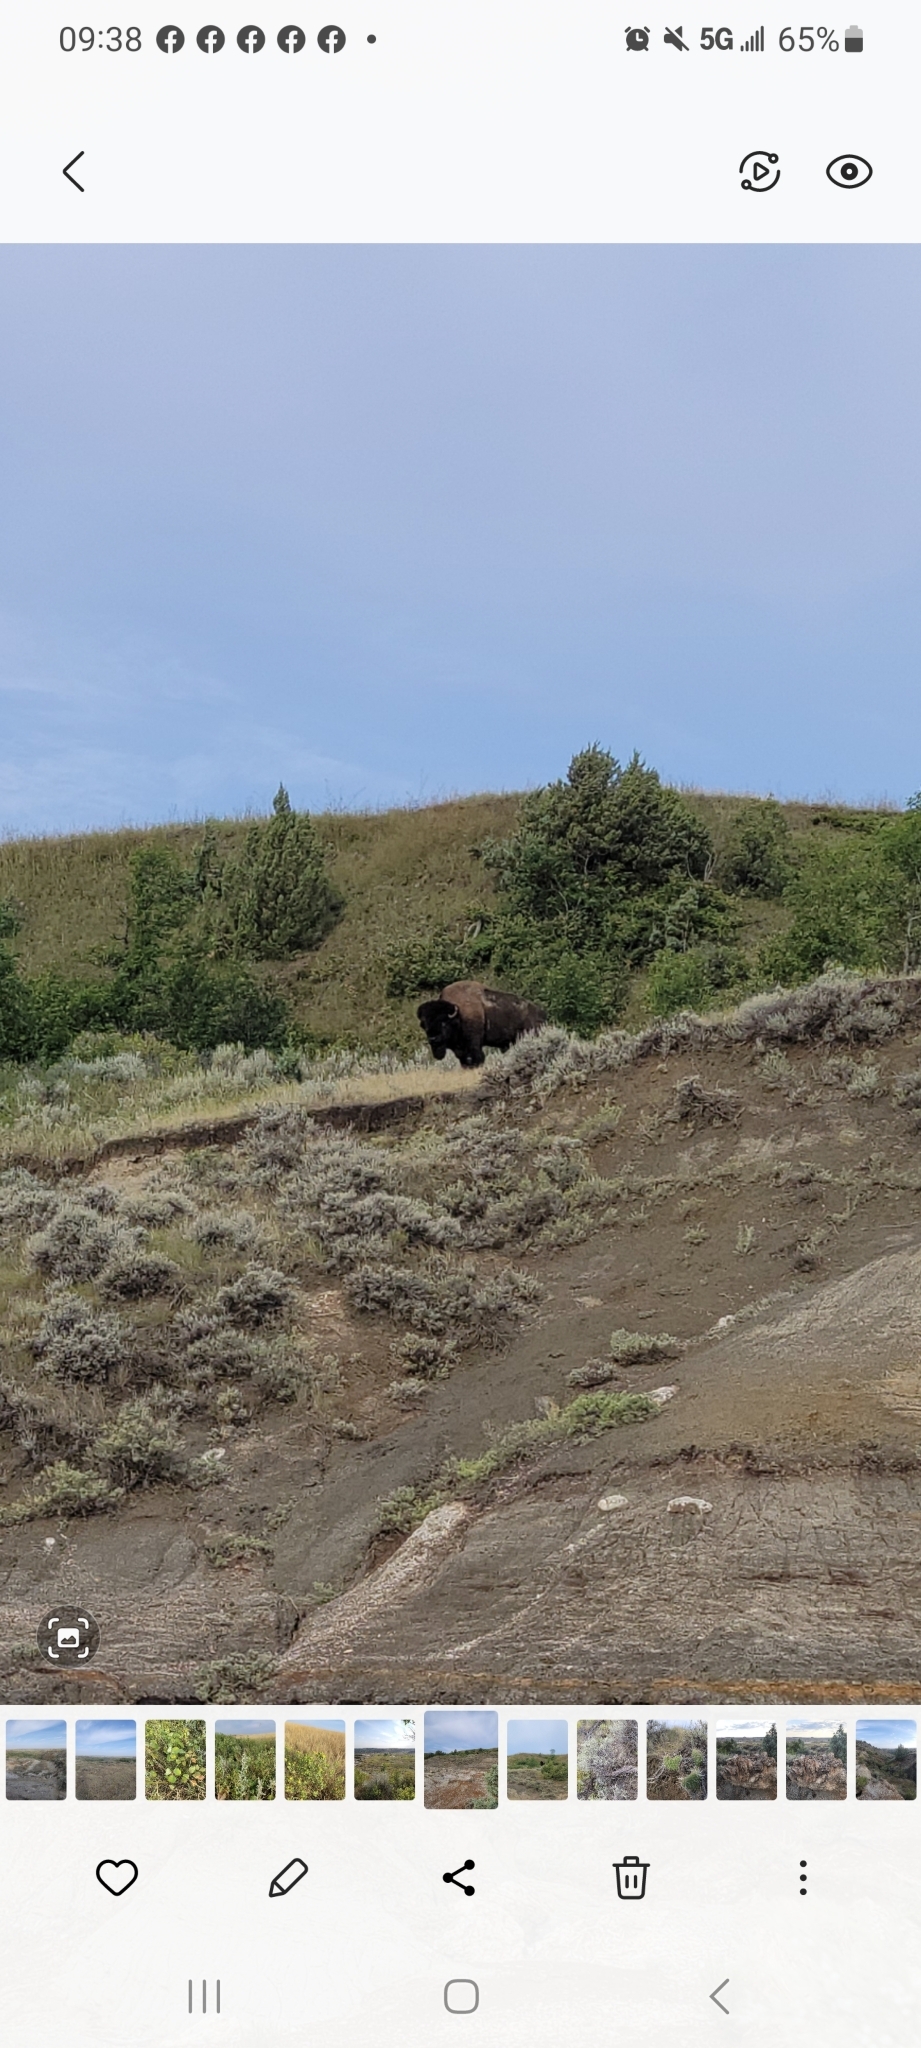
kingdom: Animalia
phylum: Chordata
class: Mammalia
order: Artiodactyla
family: Bovidae
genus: Bison
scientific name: Bison bison
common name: American bison
